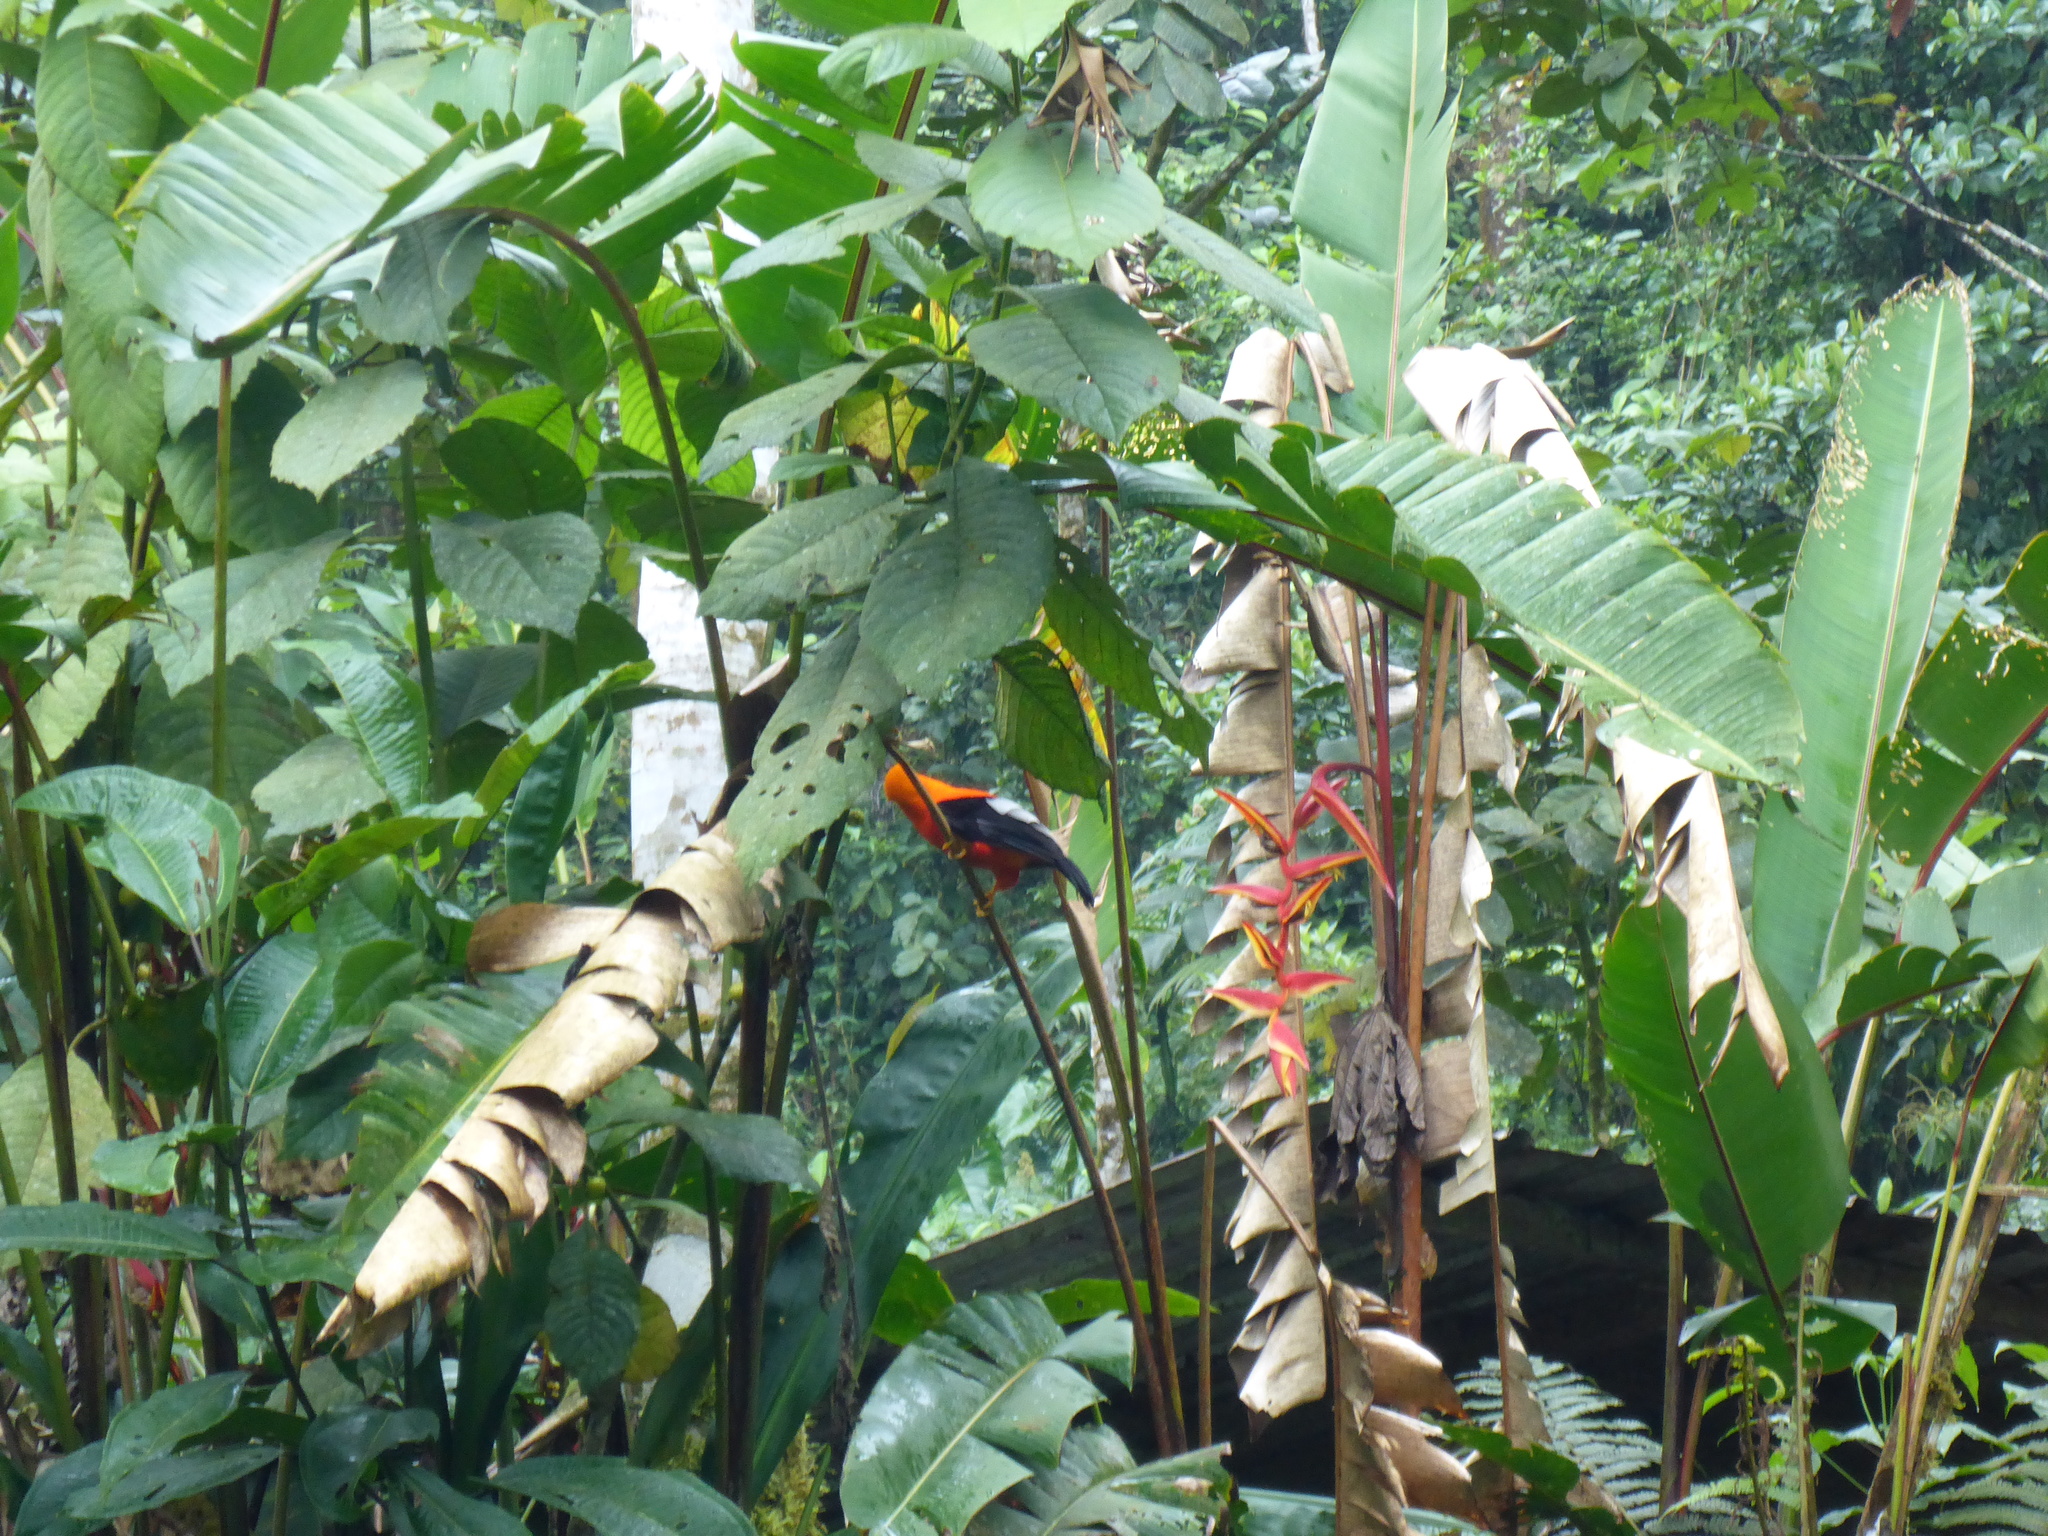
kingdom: Animalia
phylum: Chordata
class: Aves
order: Passeriformes
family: Cotingidae
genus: Rupicola
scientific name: Rupicola peruvianus
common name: Andean cock-of-the-rock
